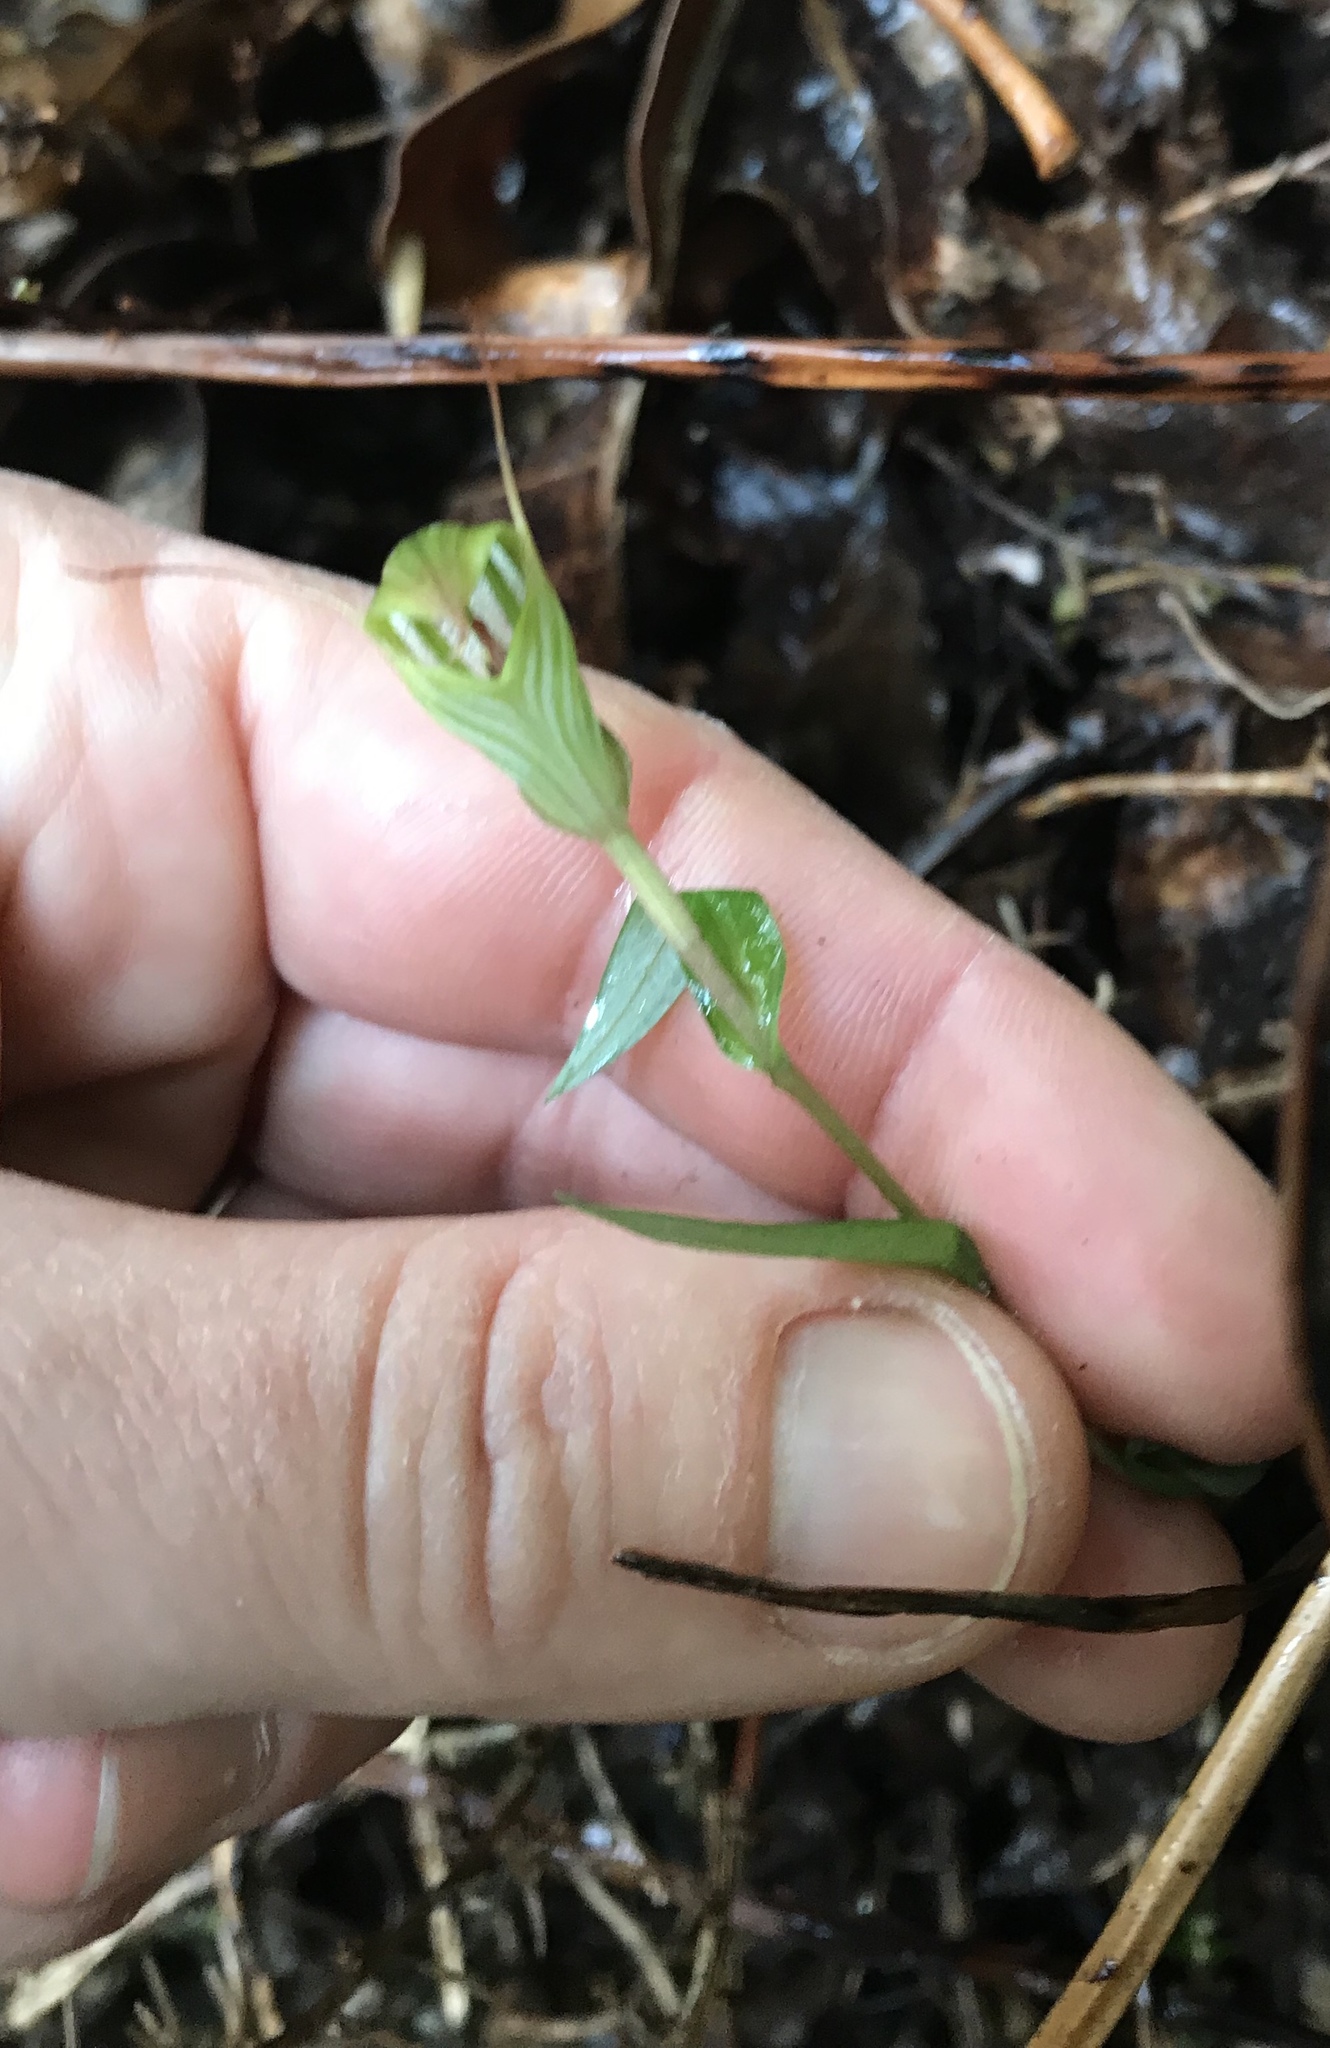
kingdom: Plantae
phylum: Tracheophyta
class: Liliopsida
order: Asparagales
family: Orchidaceae
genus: Pterostylis
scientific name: Pterostylis alobula
